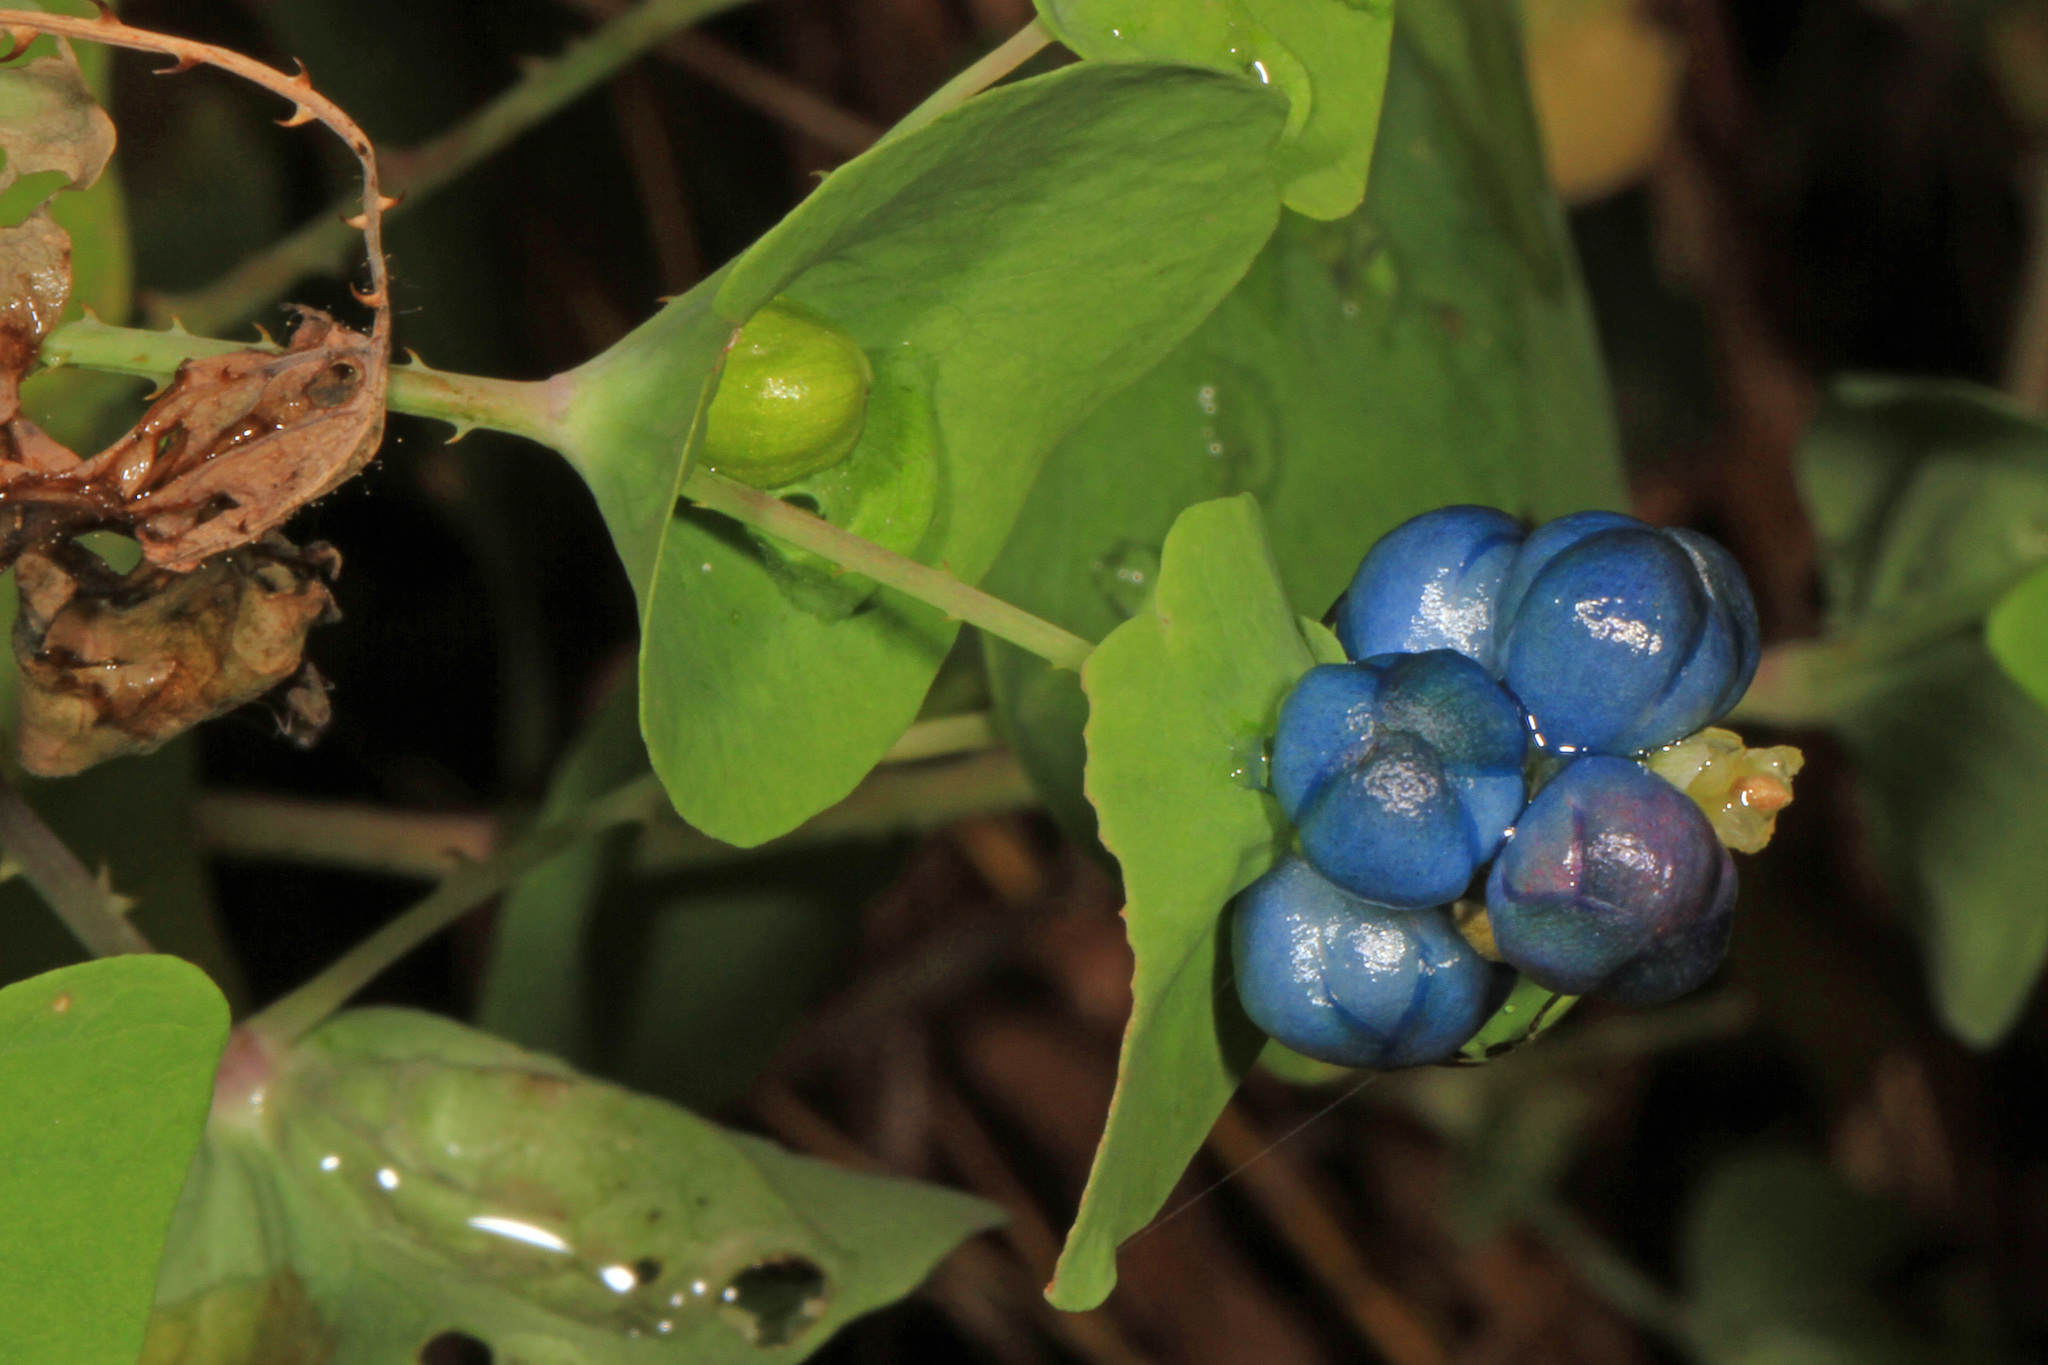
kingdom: Plantae
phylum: Tracheophyta
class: Magnoliopsida
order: Caryophyllales
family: Polygonaceae
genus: Persicaria
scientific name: Persicaria perfoliata
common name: Asiatic tearthumb
